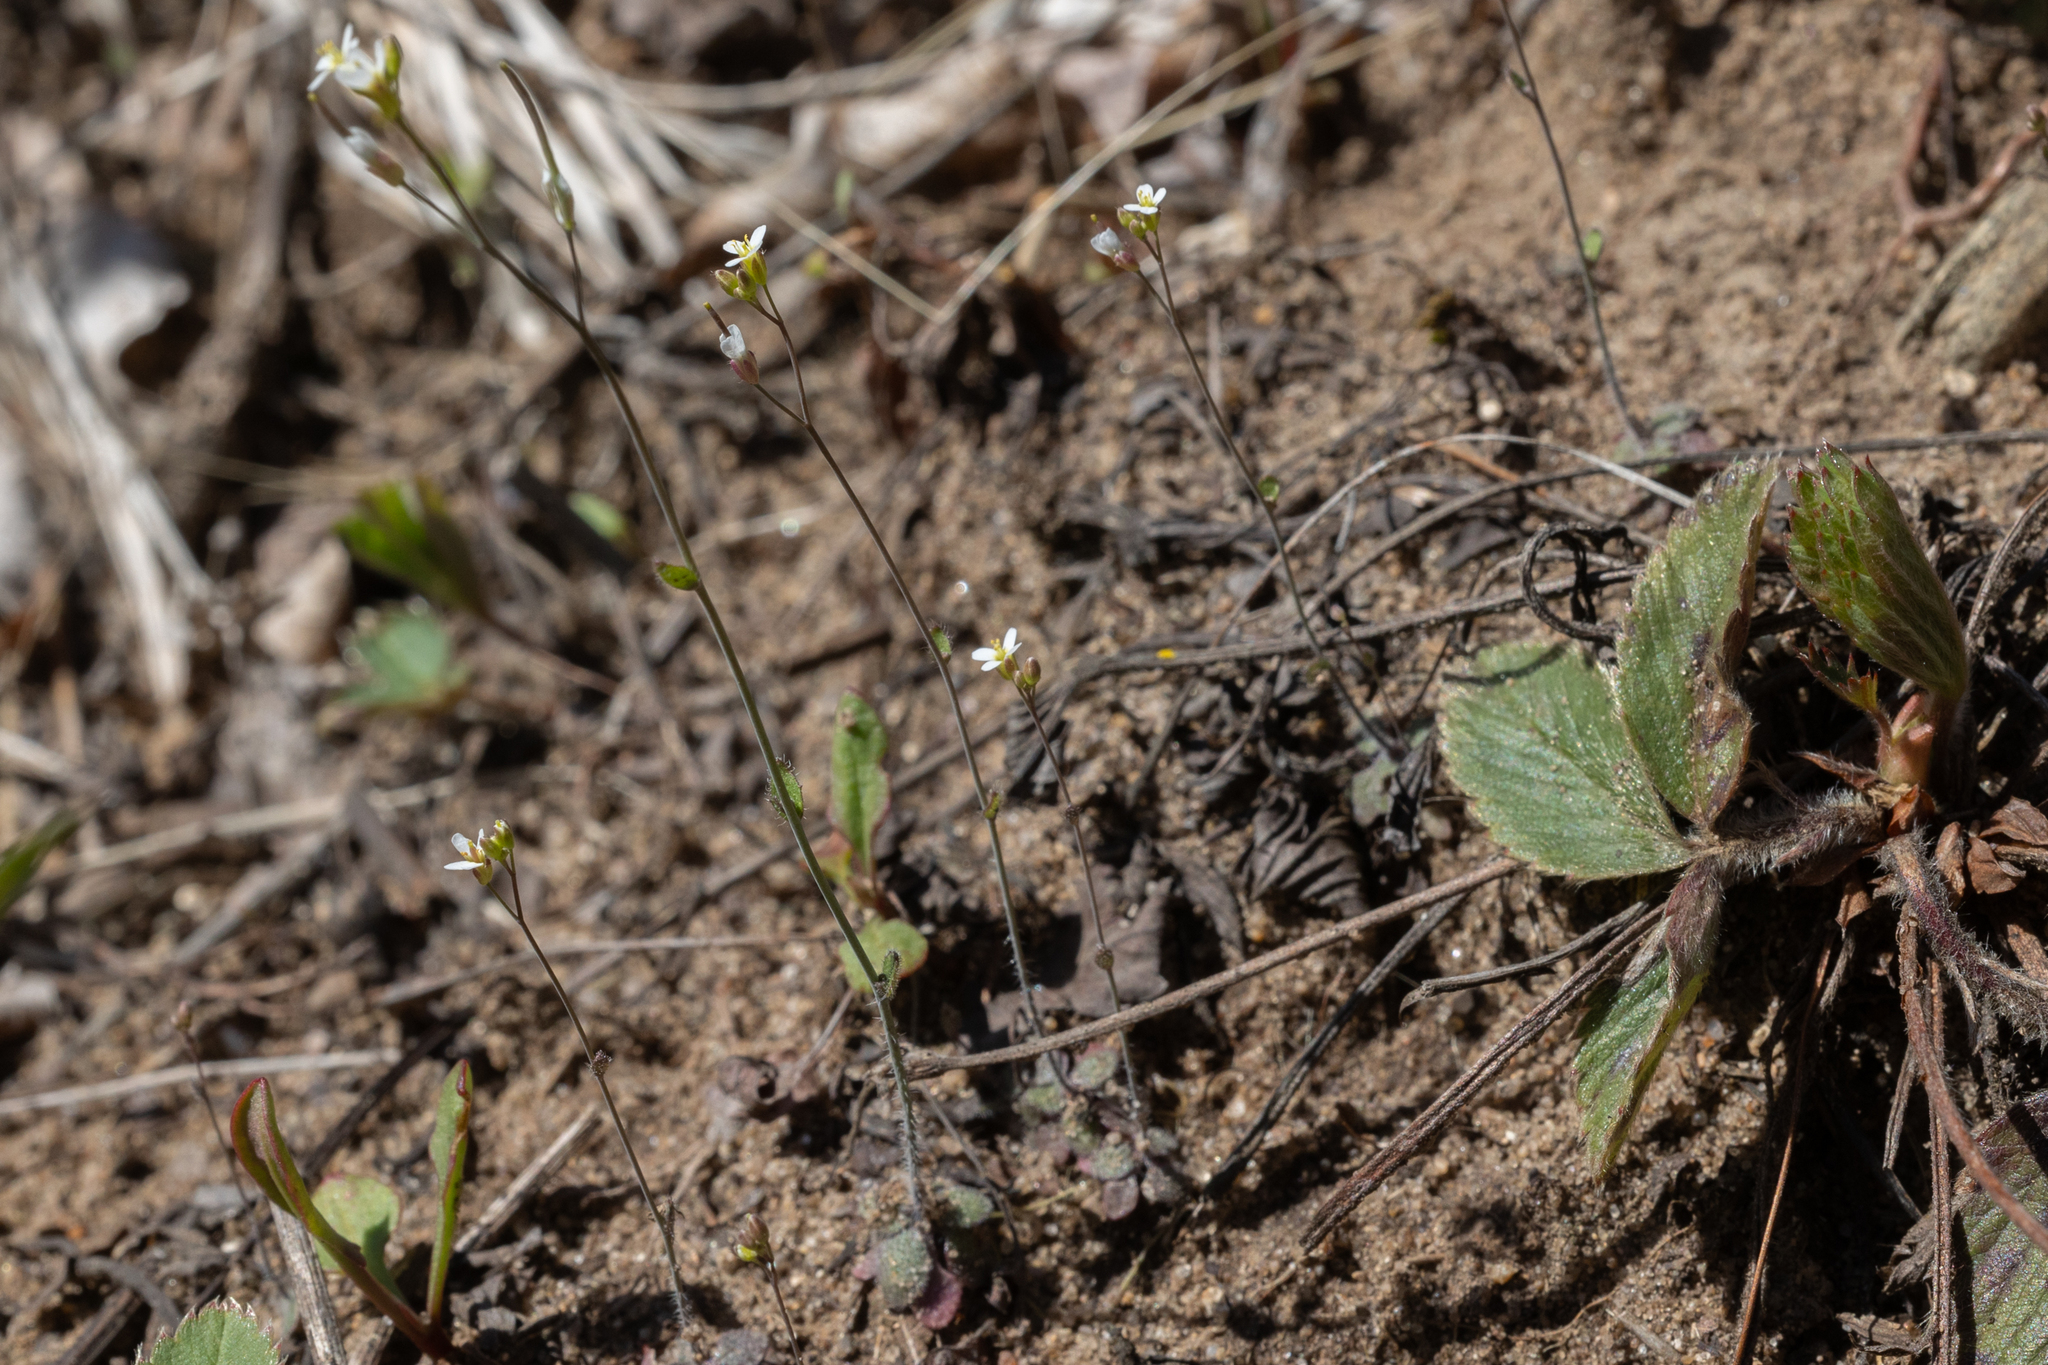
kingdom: Plantae
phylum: Tracheophyta
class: Magnoliopsida
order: Brassicales
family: Brassicaceae
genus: Arabidopsis
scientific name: Arabidopsis thaliana
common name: Thale cress
